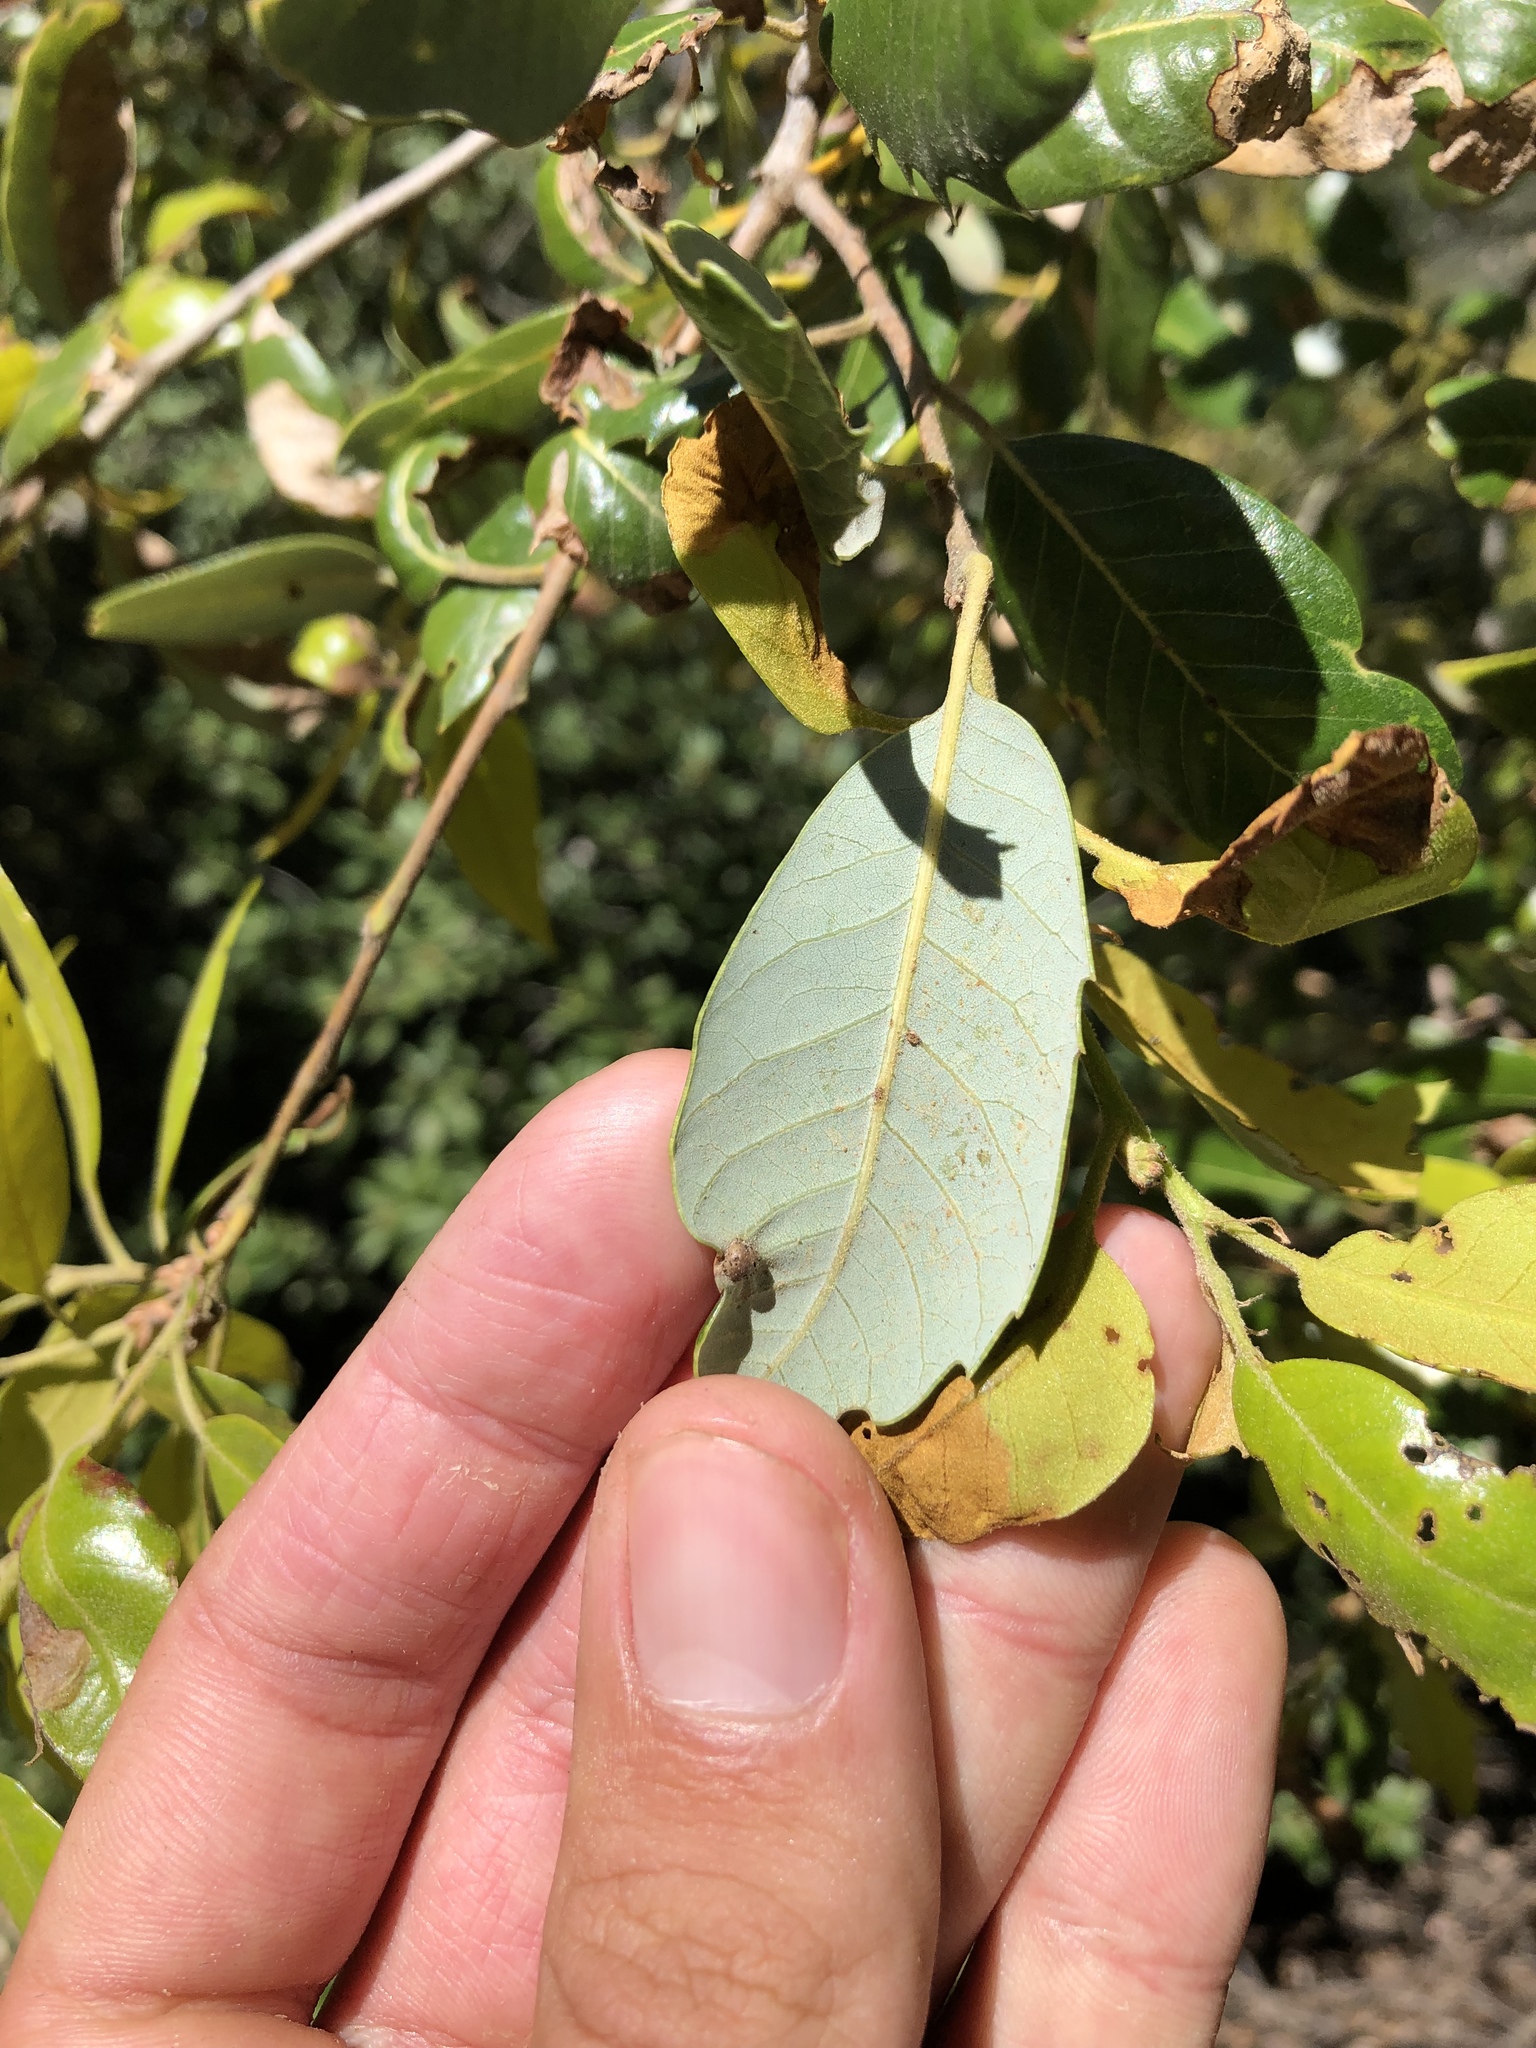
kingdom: Plantae
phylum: Tracheophyta
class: Magnoliopsida
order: Fagales
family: Fagaceae
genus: Quercus
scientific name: Quercus chrysolepis
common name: Canyon live oak
